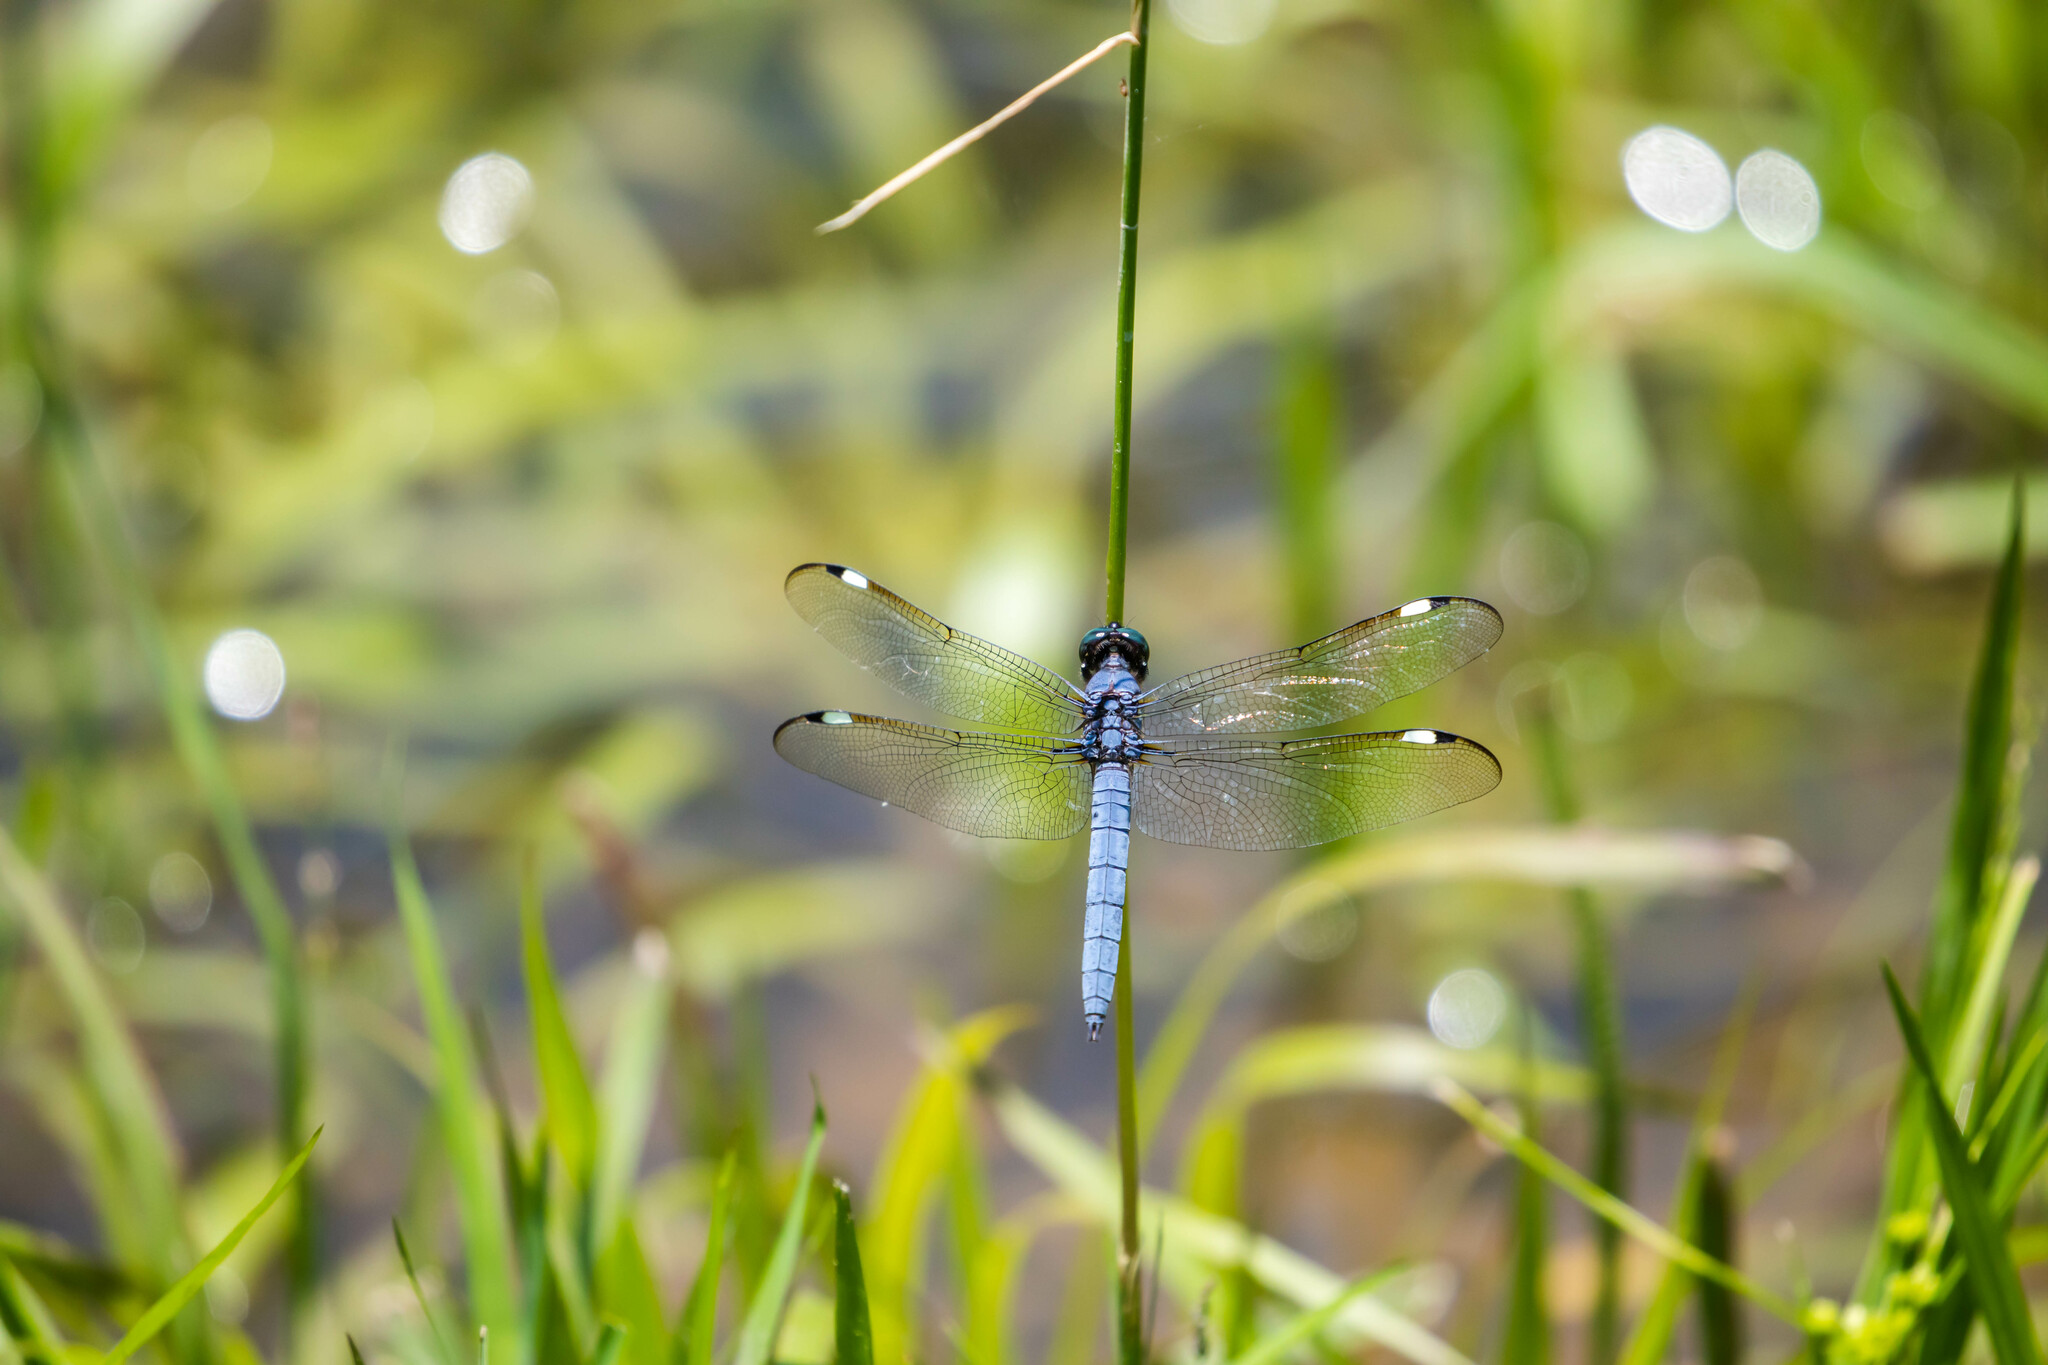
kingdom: Animalia
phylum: Arthropoda
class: Insecta
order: Odonata
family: Libellulidae
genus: Libellula
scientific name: Libellula cyanea
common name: Spangled skimmer
